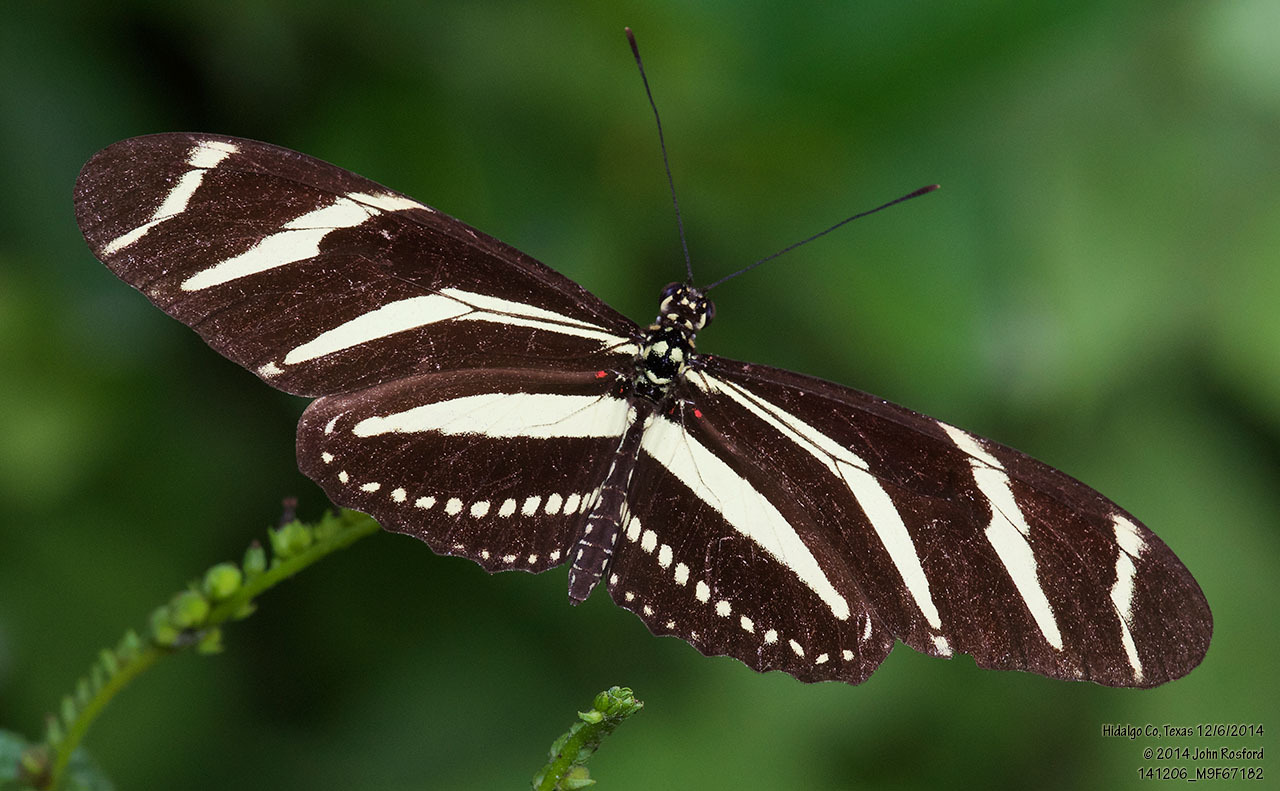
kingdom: Animalia
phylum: Arthropoda
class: Insecta
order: Lepidoptera
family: Nymphalidae
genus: Heliconius
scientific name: Heliconius charithonia
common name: Zebra long wing
